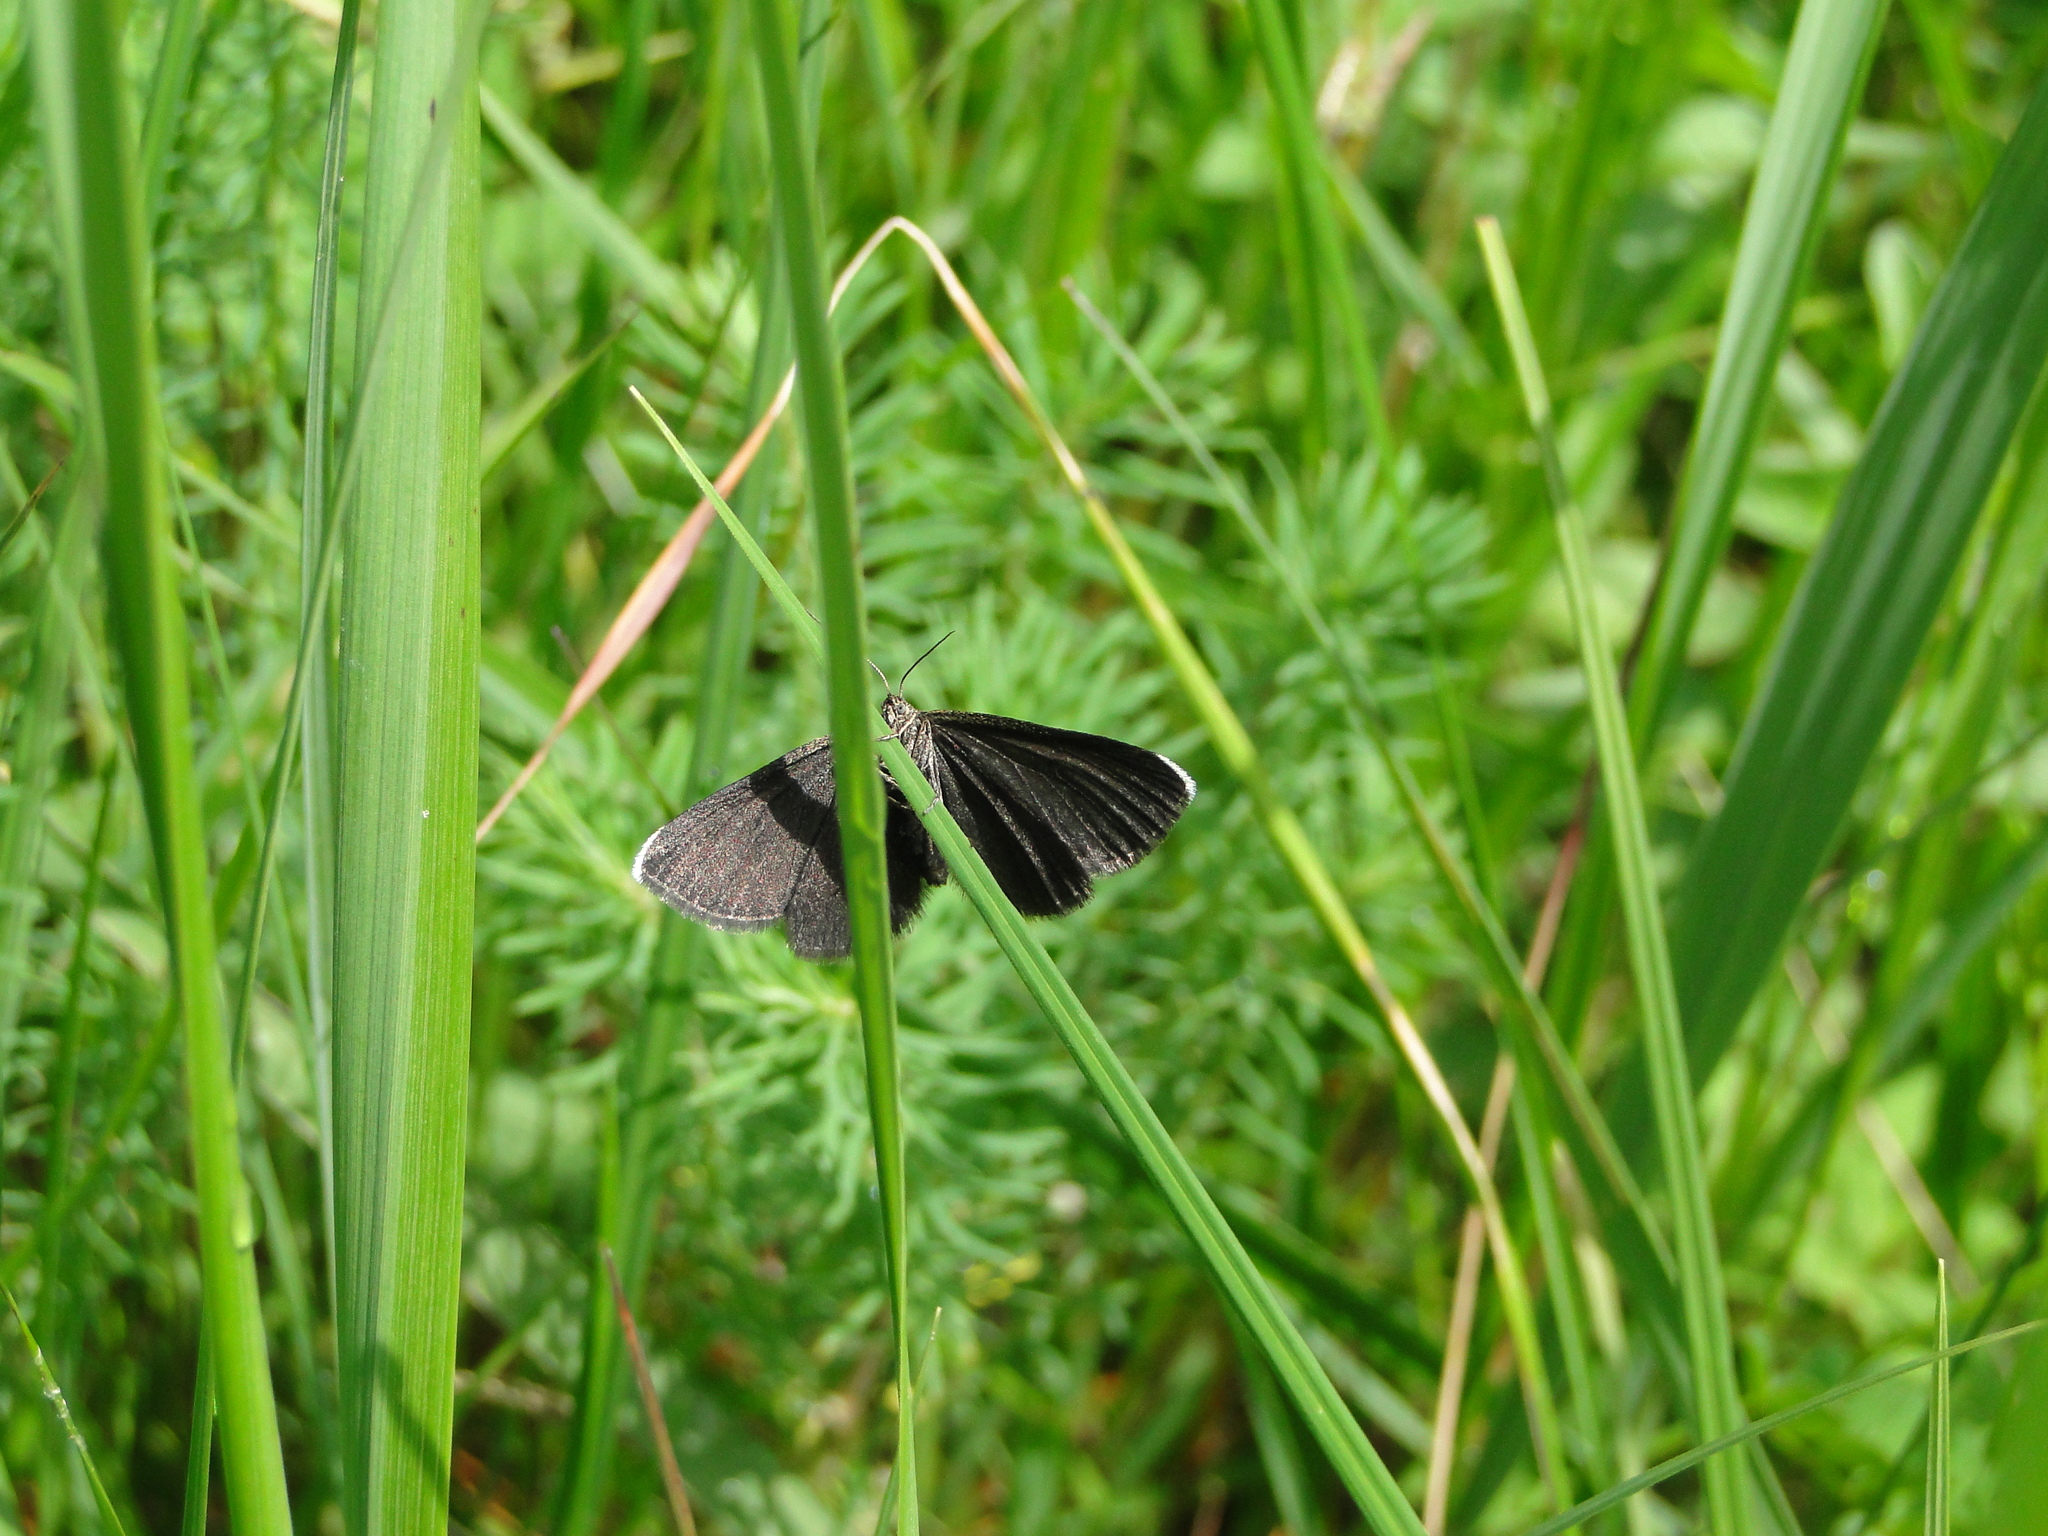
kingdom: Animalia
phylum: Arthropoda
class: Insecta
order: Lepidoptera
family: Geometridae
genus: Odezia
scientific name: Odezia atrata
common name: Chimney sweeper
